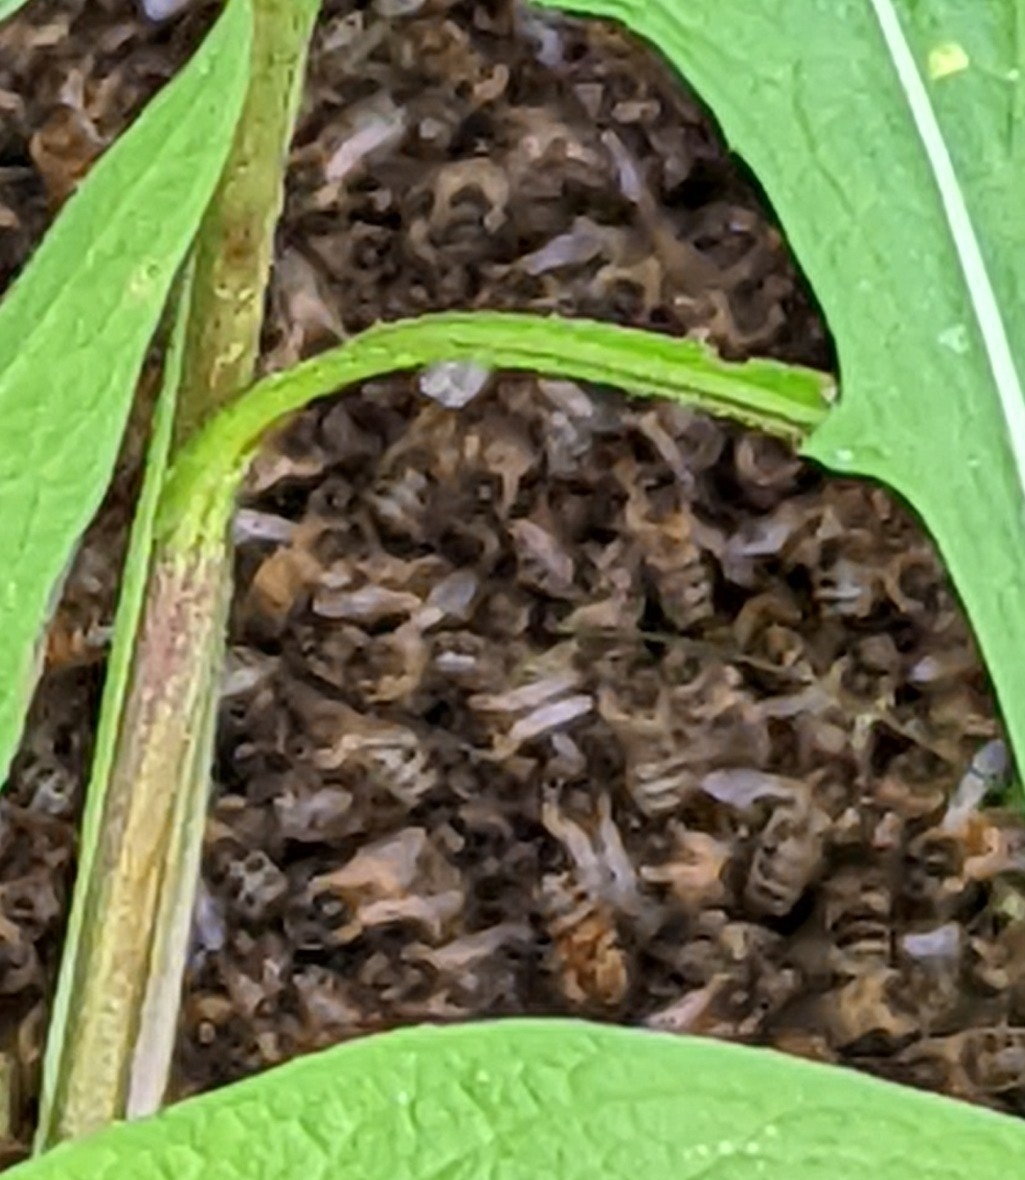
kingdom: Animalia
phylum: Arthropoda
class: Insecta
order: Hymenoptera
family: Apidae
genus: Apis
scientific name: Apis mellifera
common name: Honey bee
